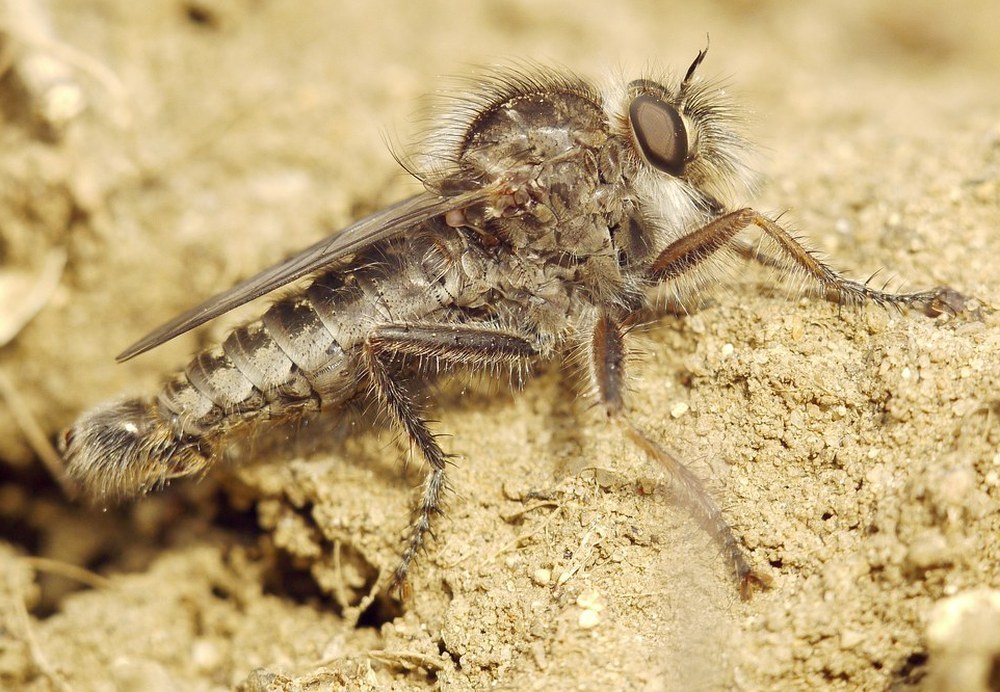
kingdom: Animalia
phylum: Arthropoda
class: Insecta
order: Diptera
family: Asilidae
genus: Erax
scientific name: Erax crassicauda
